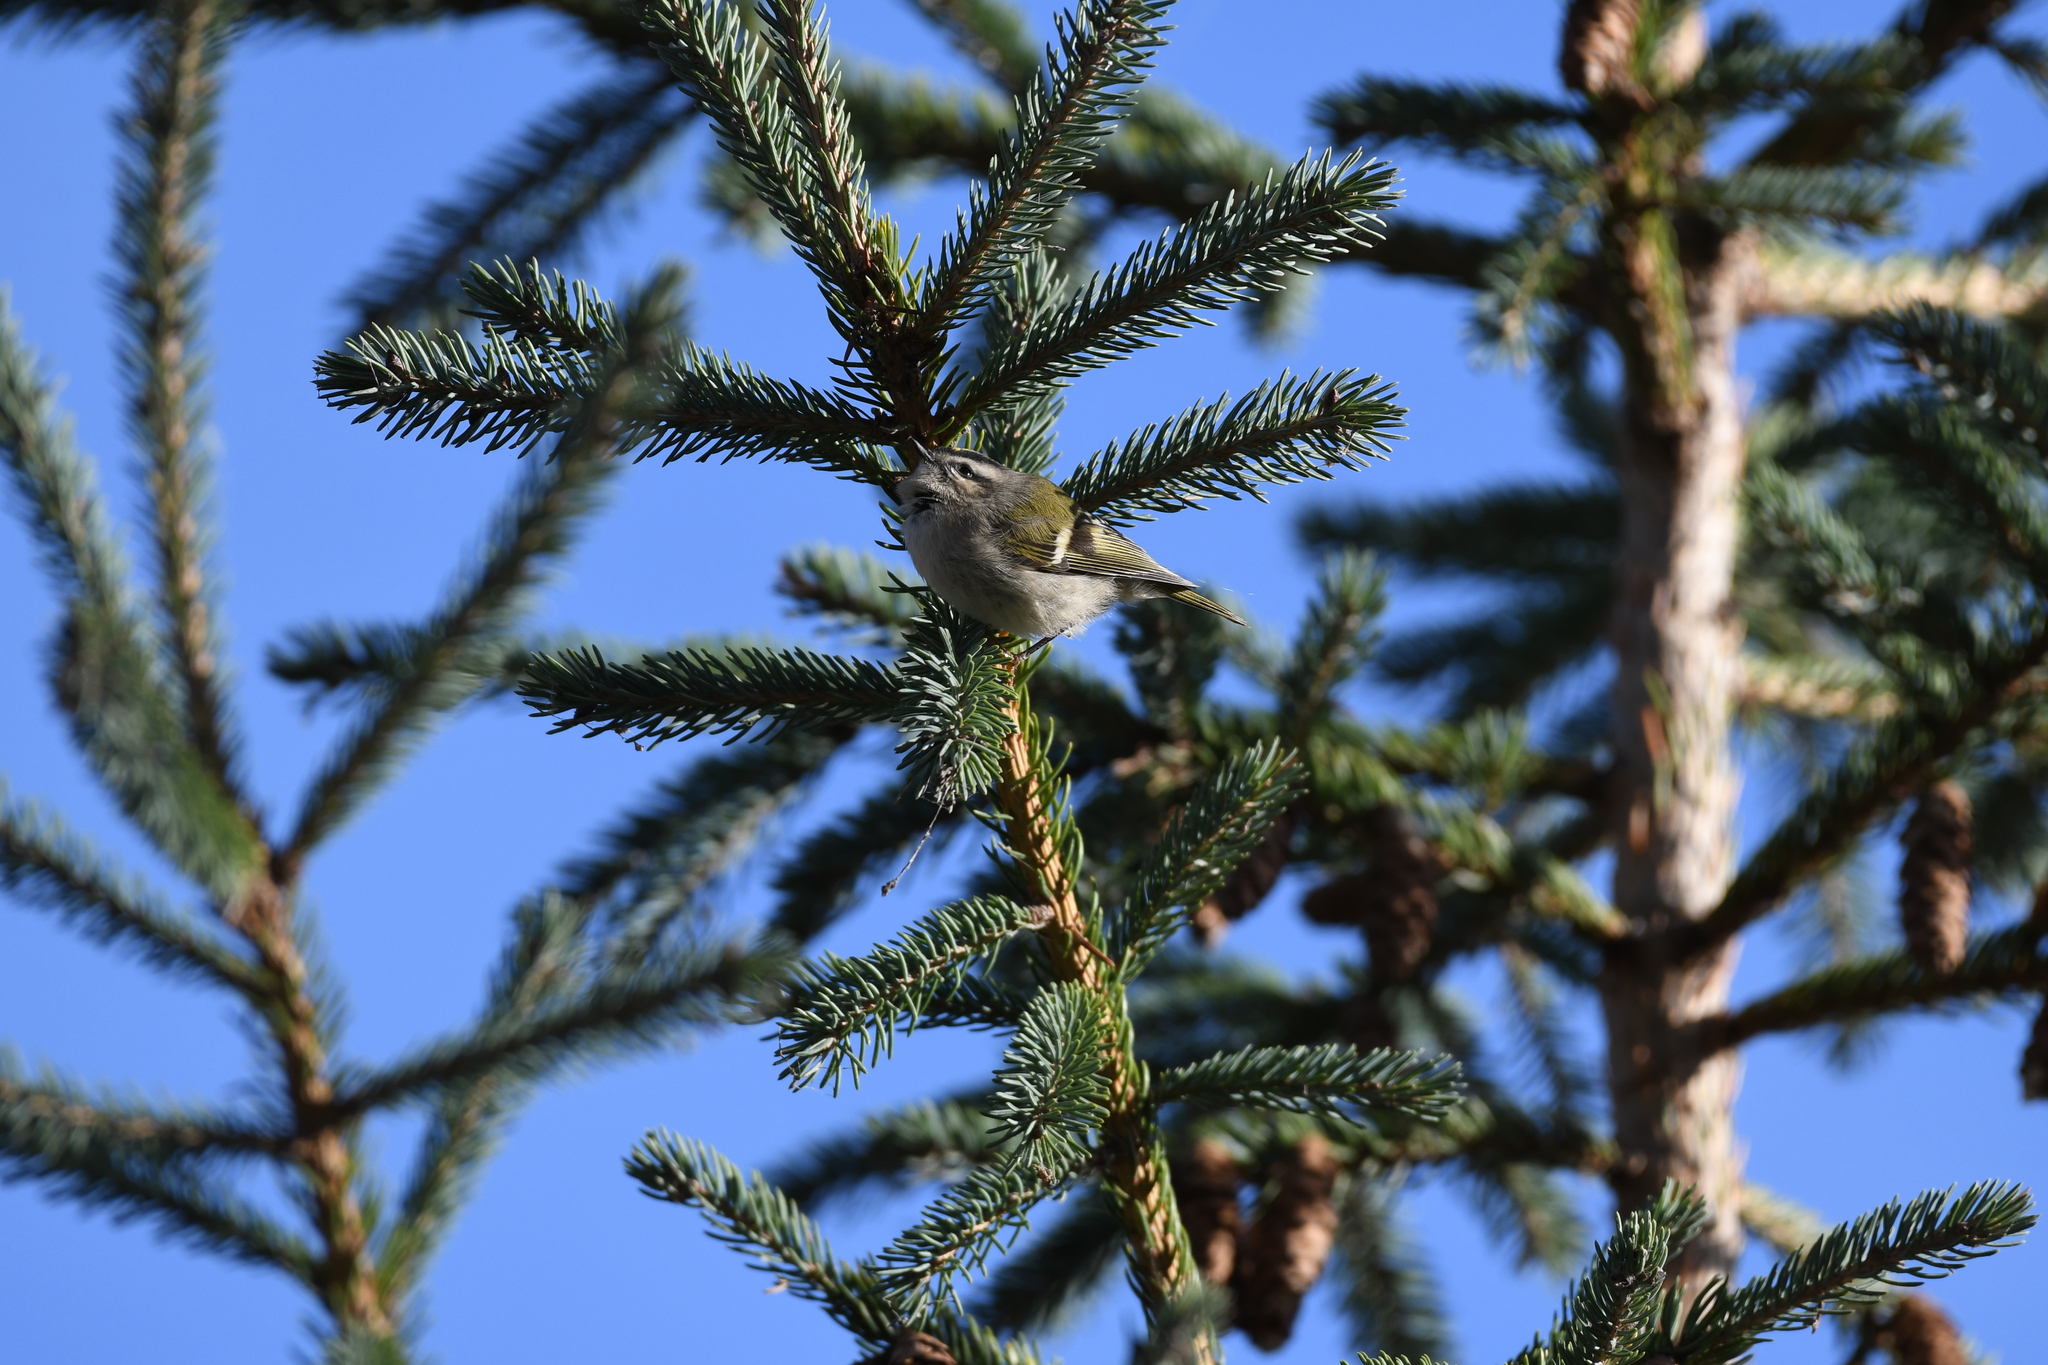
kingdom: Animalia
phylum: Chordata
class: Aves
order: Passeriformes
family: Regulidae
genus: Regulus
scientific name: Regulus satrapa
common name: Golden-crowned kinglet
